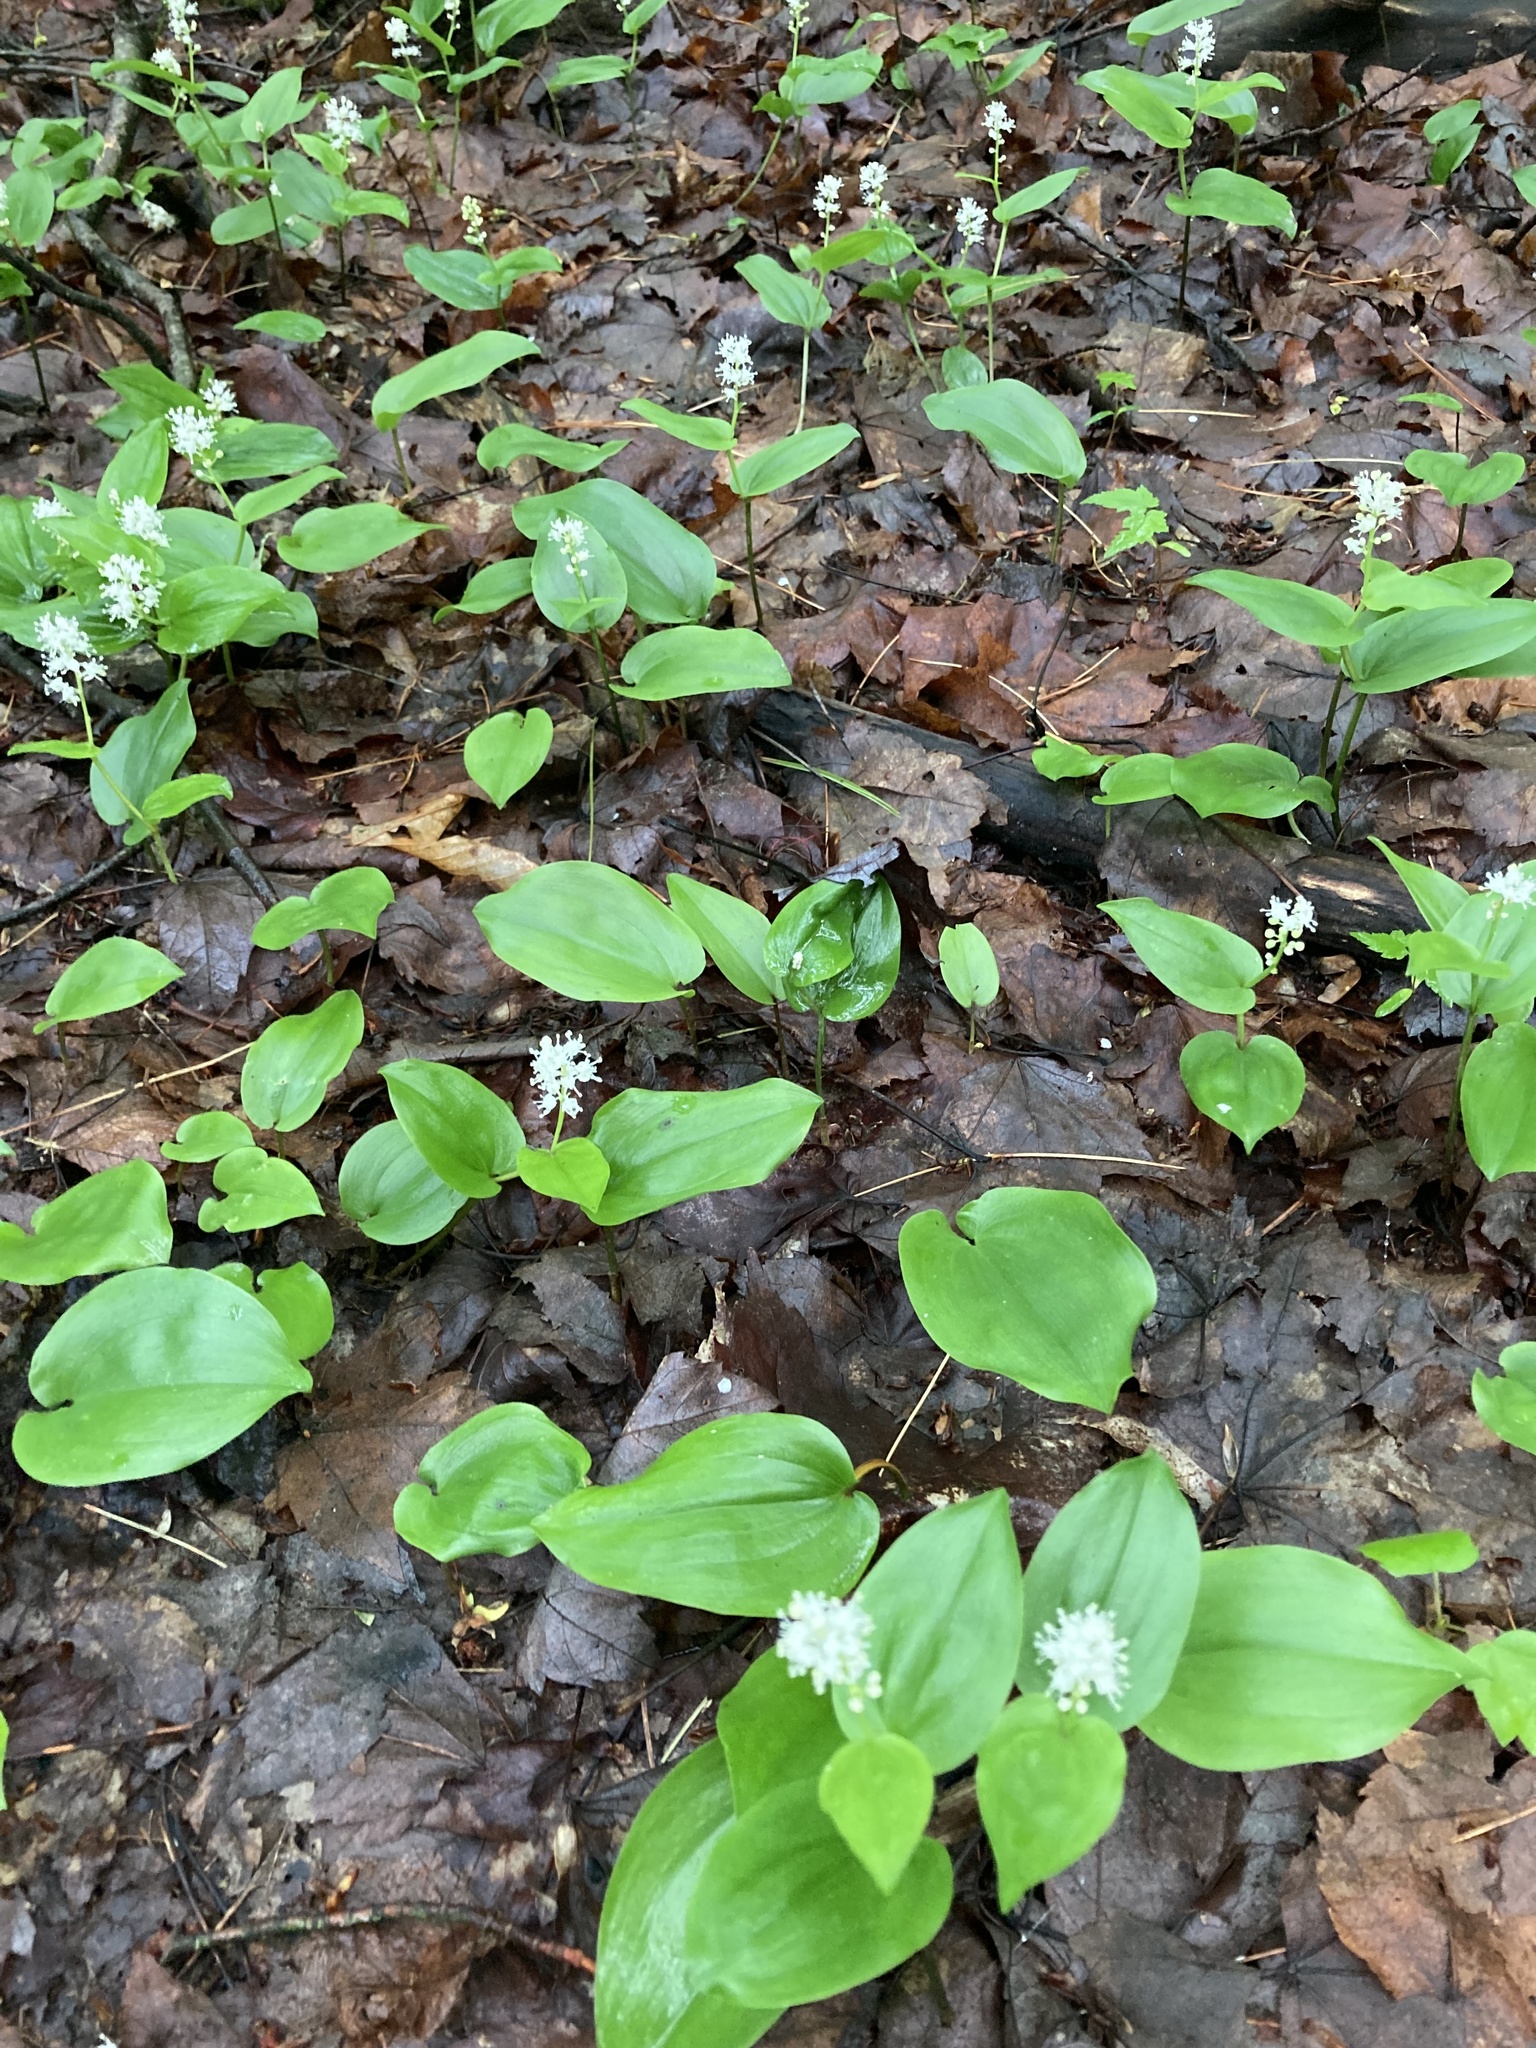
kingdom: Plantae
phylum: Tracheophyta
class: Liliopsida
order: Asparagales
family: Asparagaceae
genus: Maianthemum
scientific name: Maianthemum canadense
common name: False lily-of-the-valley
